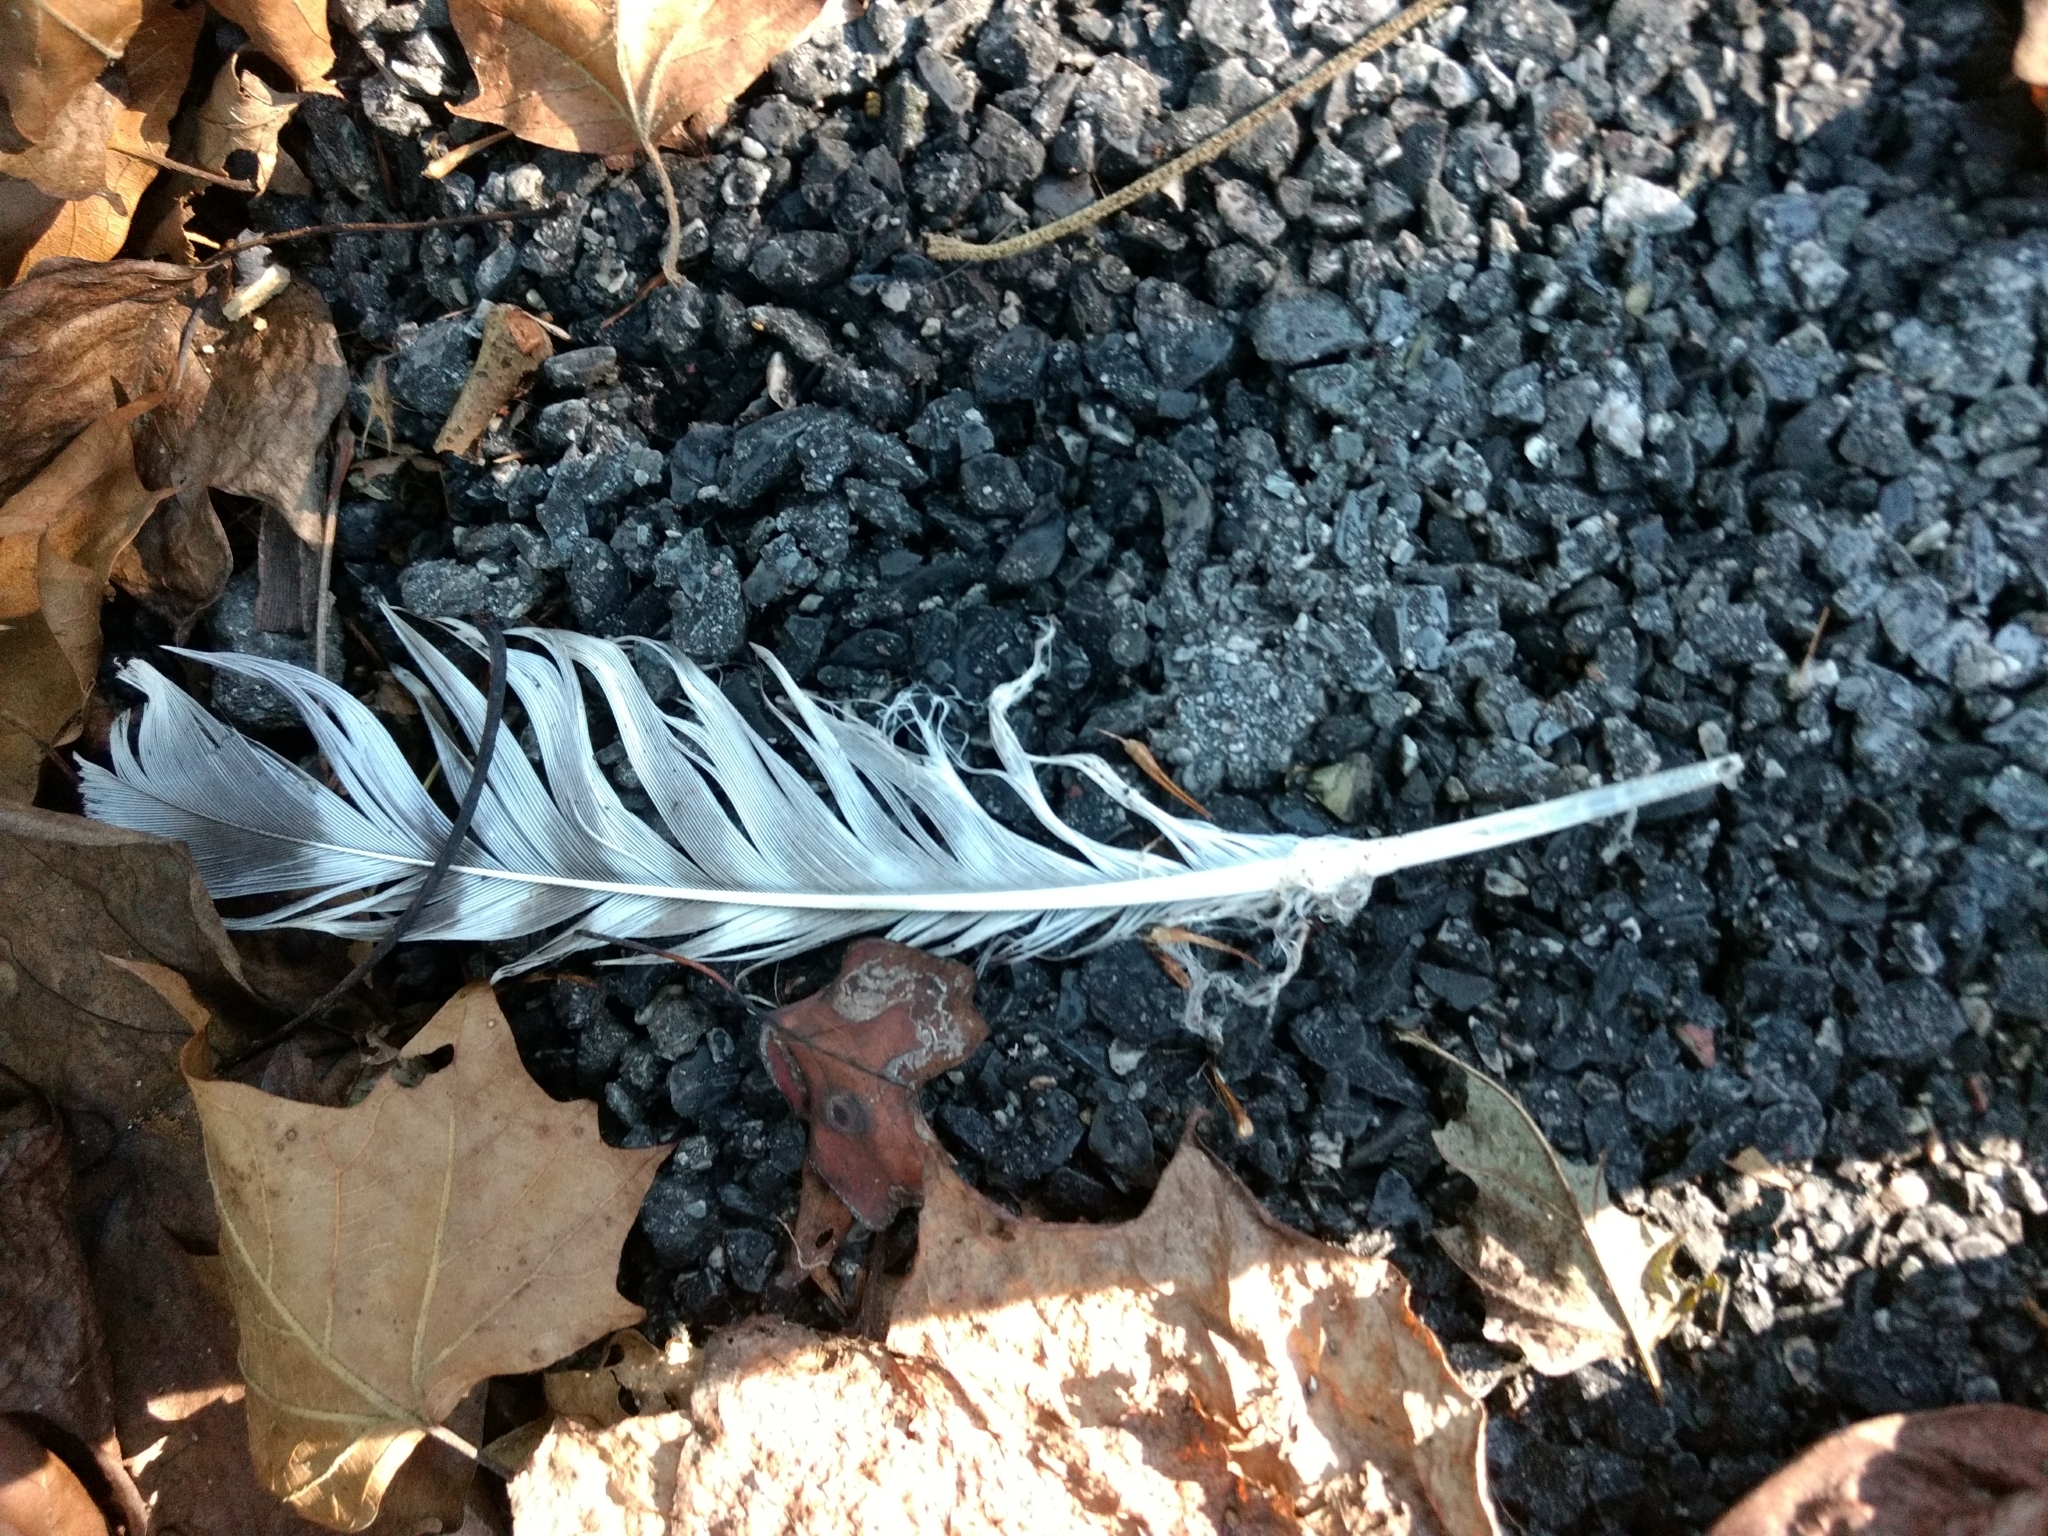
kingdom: Animalia
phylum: Chordata
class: Aves
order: Accipitriformes
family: Accipitridae
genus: Buteo
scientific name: Buteo lineatus
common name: Red-shouldered hawk
